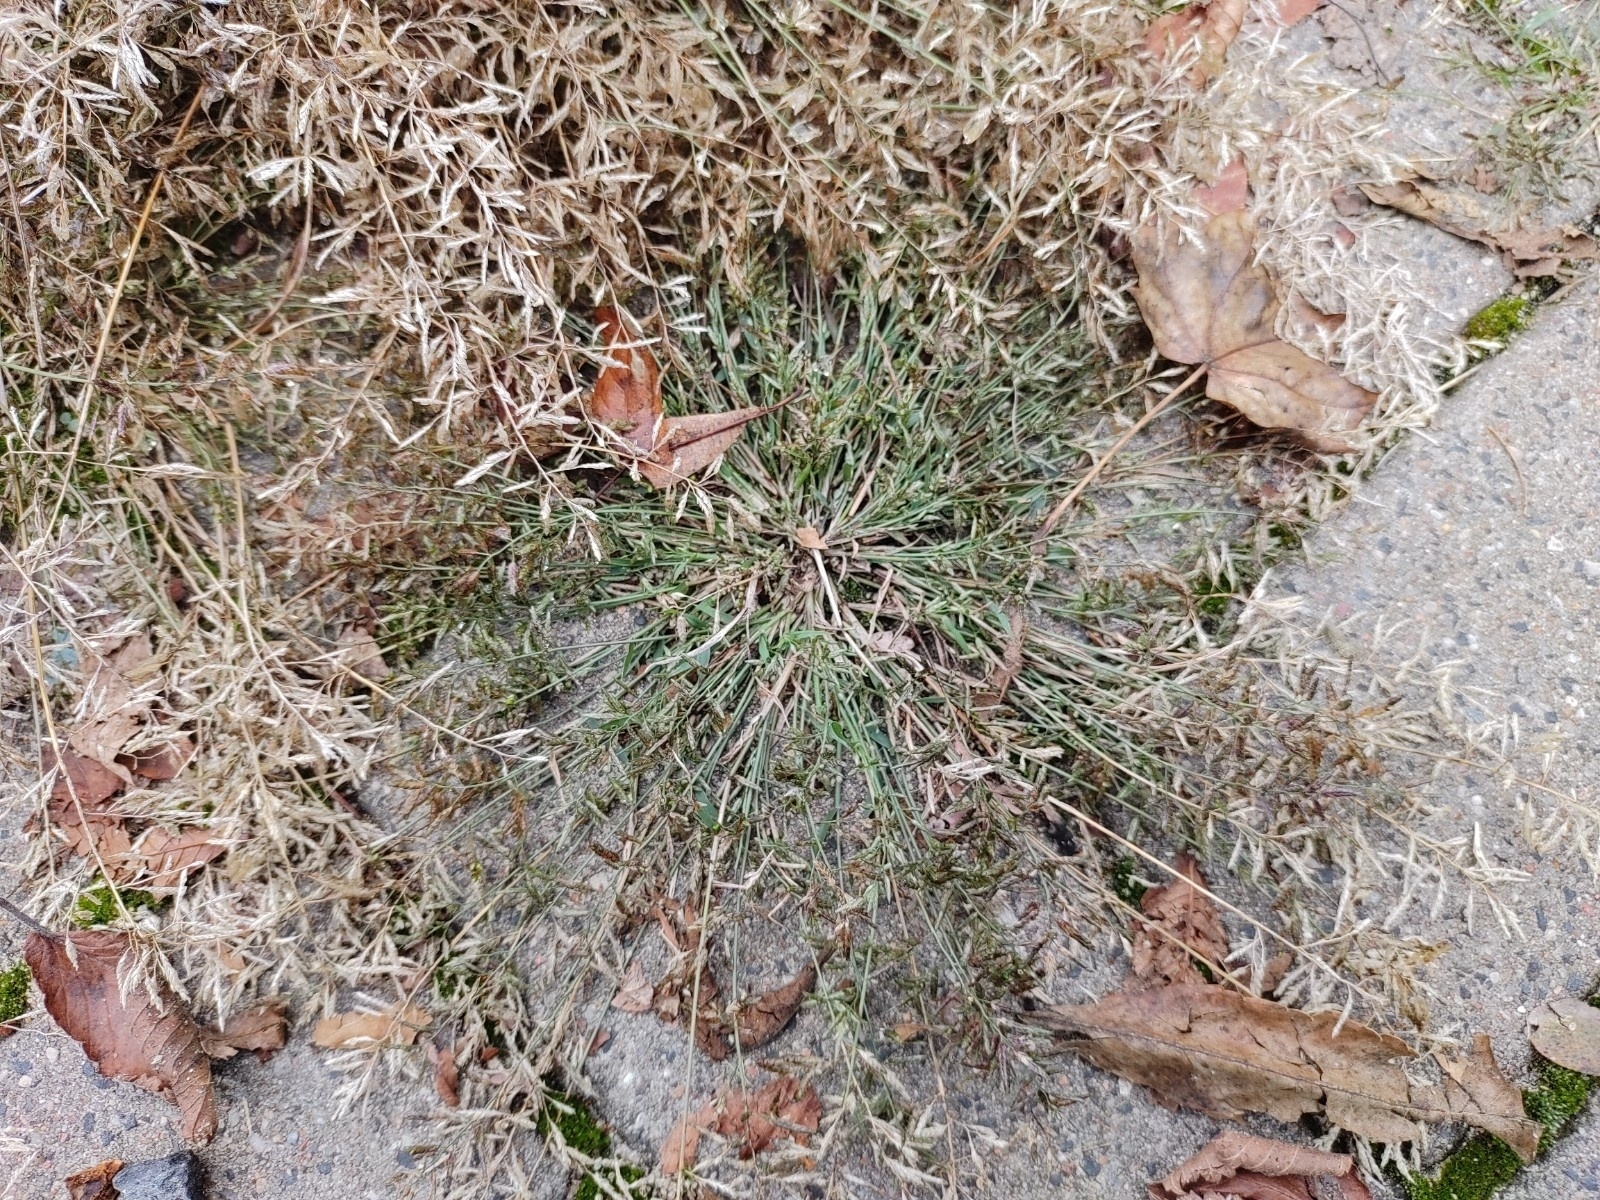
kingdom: Plantae
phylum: Tracheophyta
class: Liliopsida
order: Poales
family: Poaceae
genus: Eragrostis
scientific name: Eragrostis minor
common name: Small love-grass
